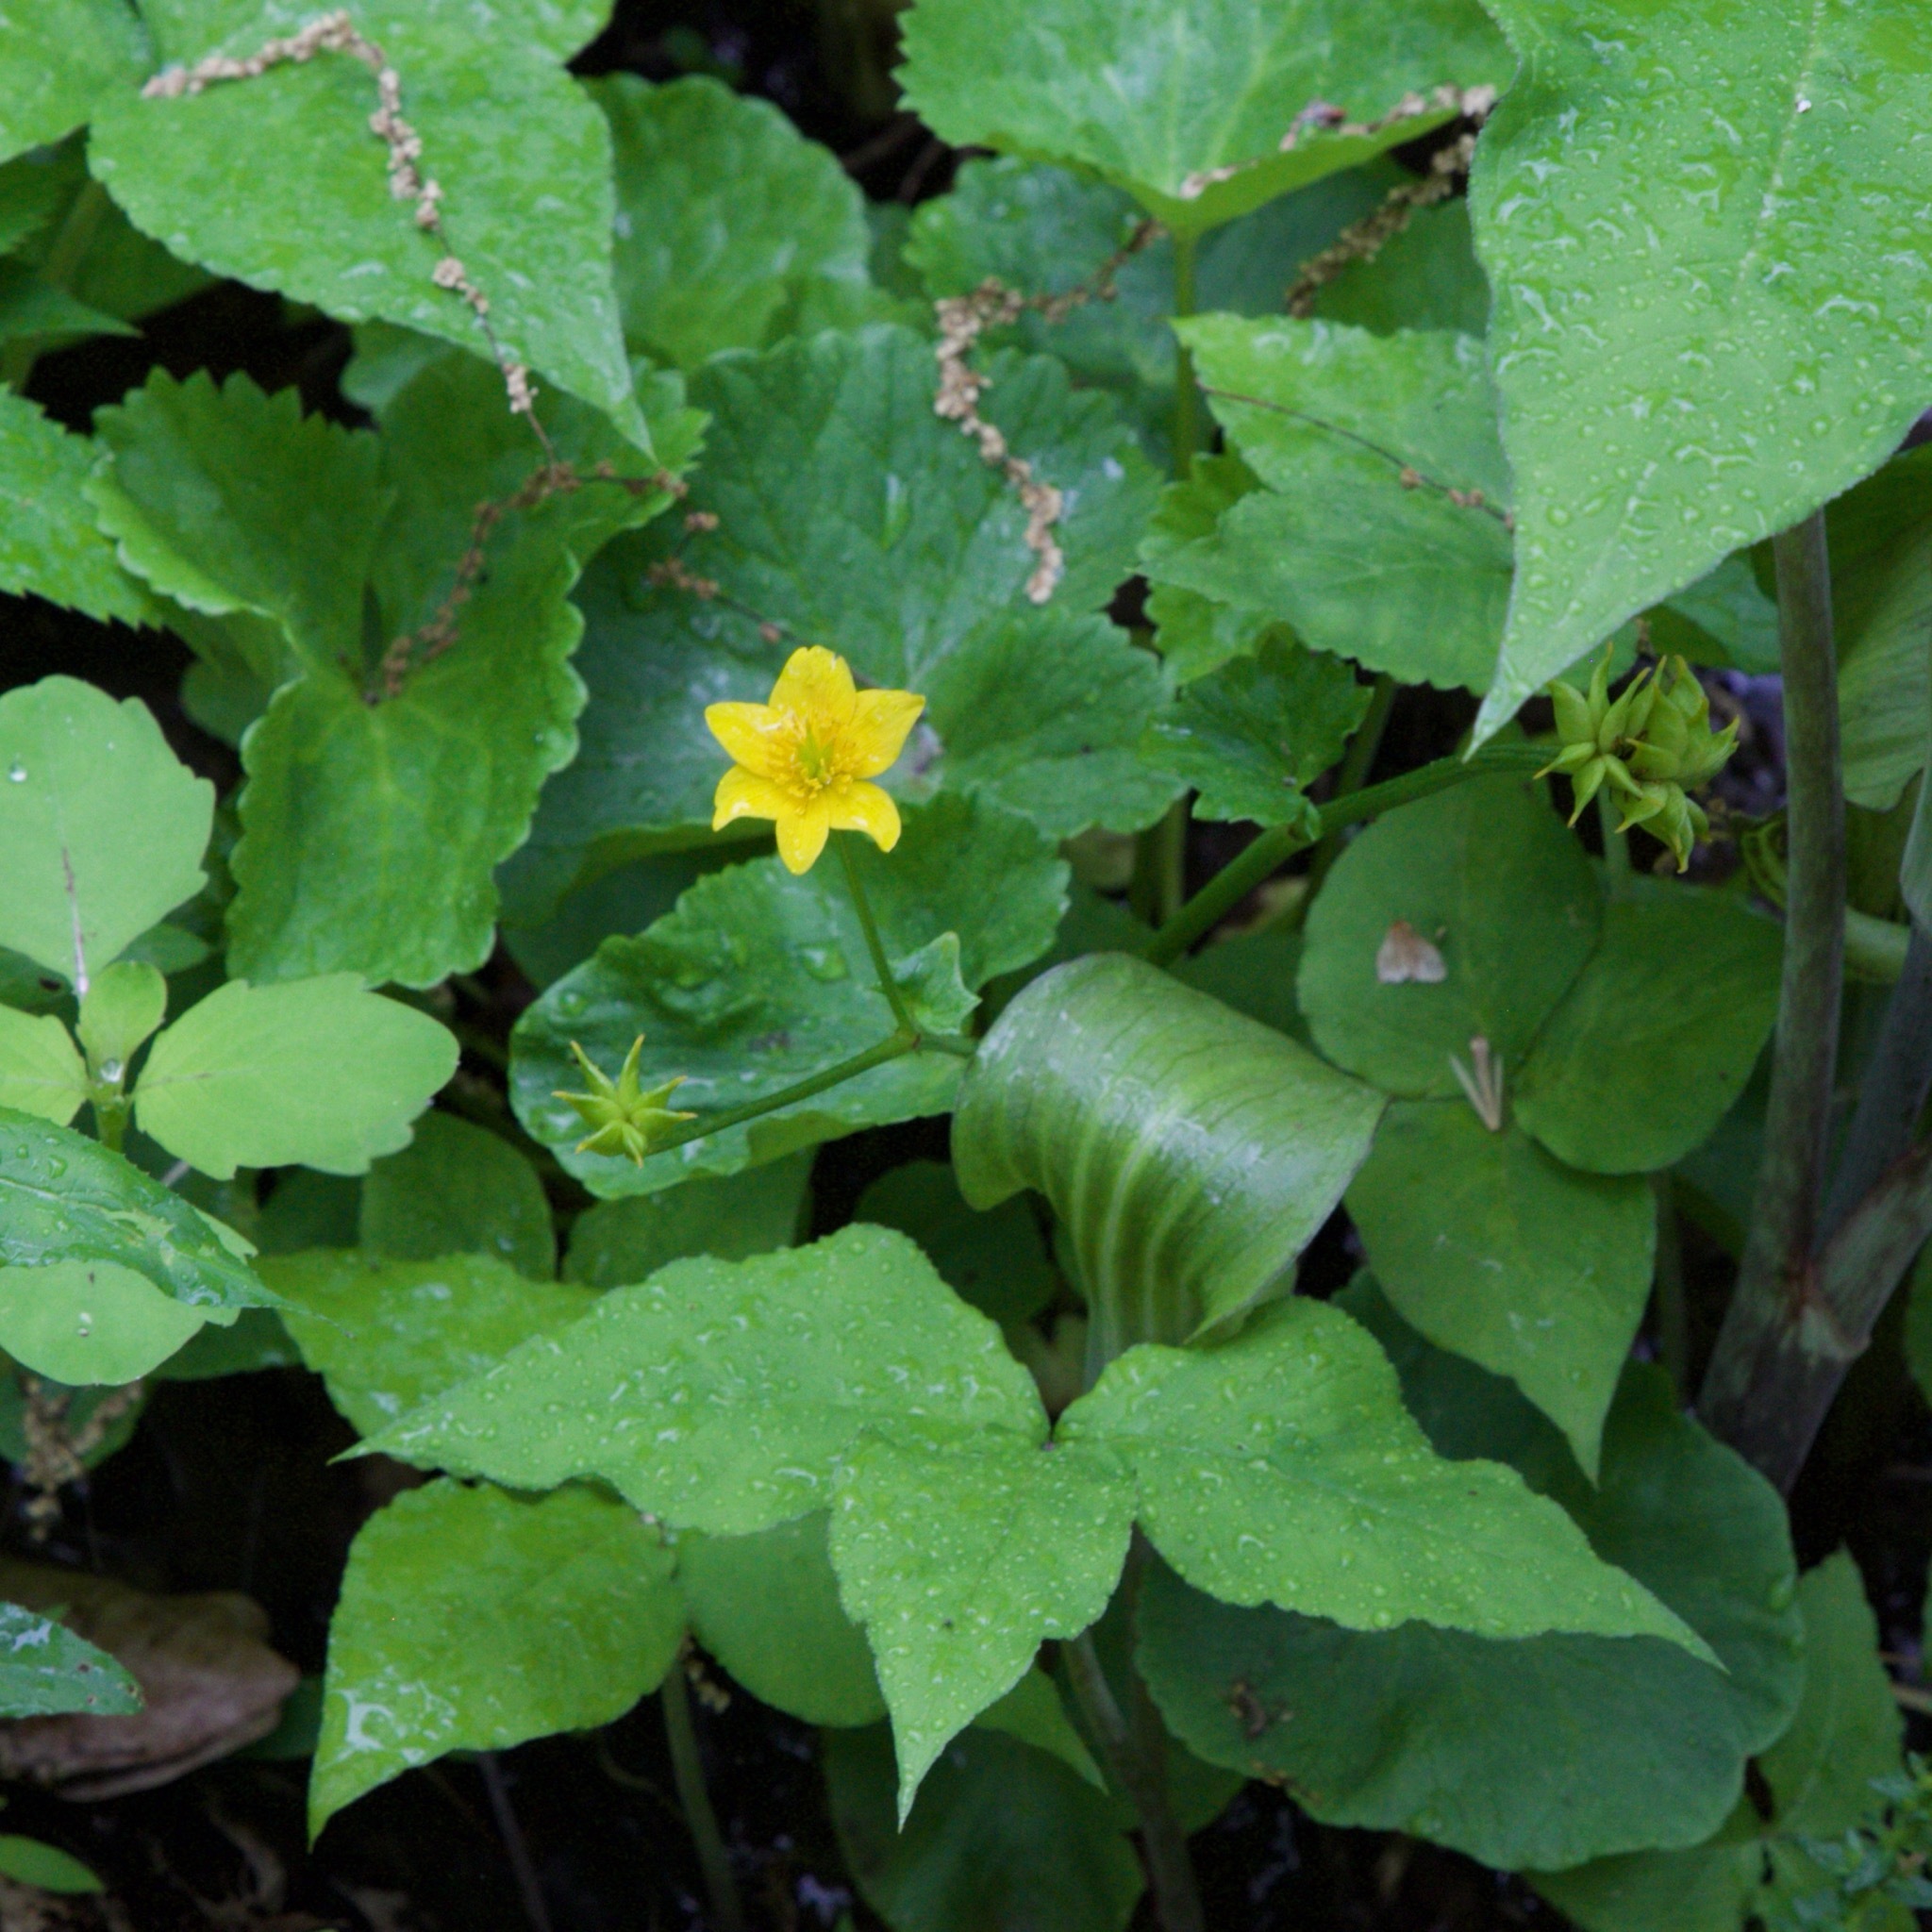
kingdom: Plantae
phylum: Tracheophyta
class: Magnoliopsida
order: Ranunculales
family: Ranunculaceae
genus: Caltha
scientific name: Caltha palustris
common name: Marsh marigold
